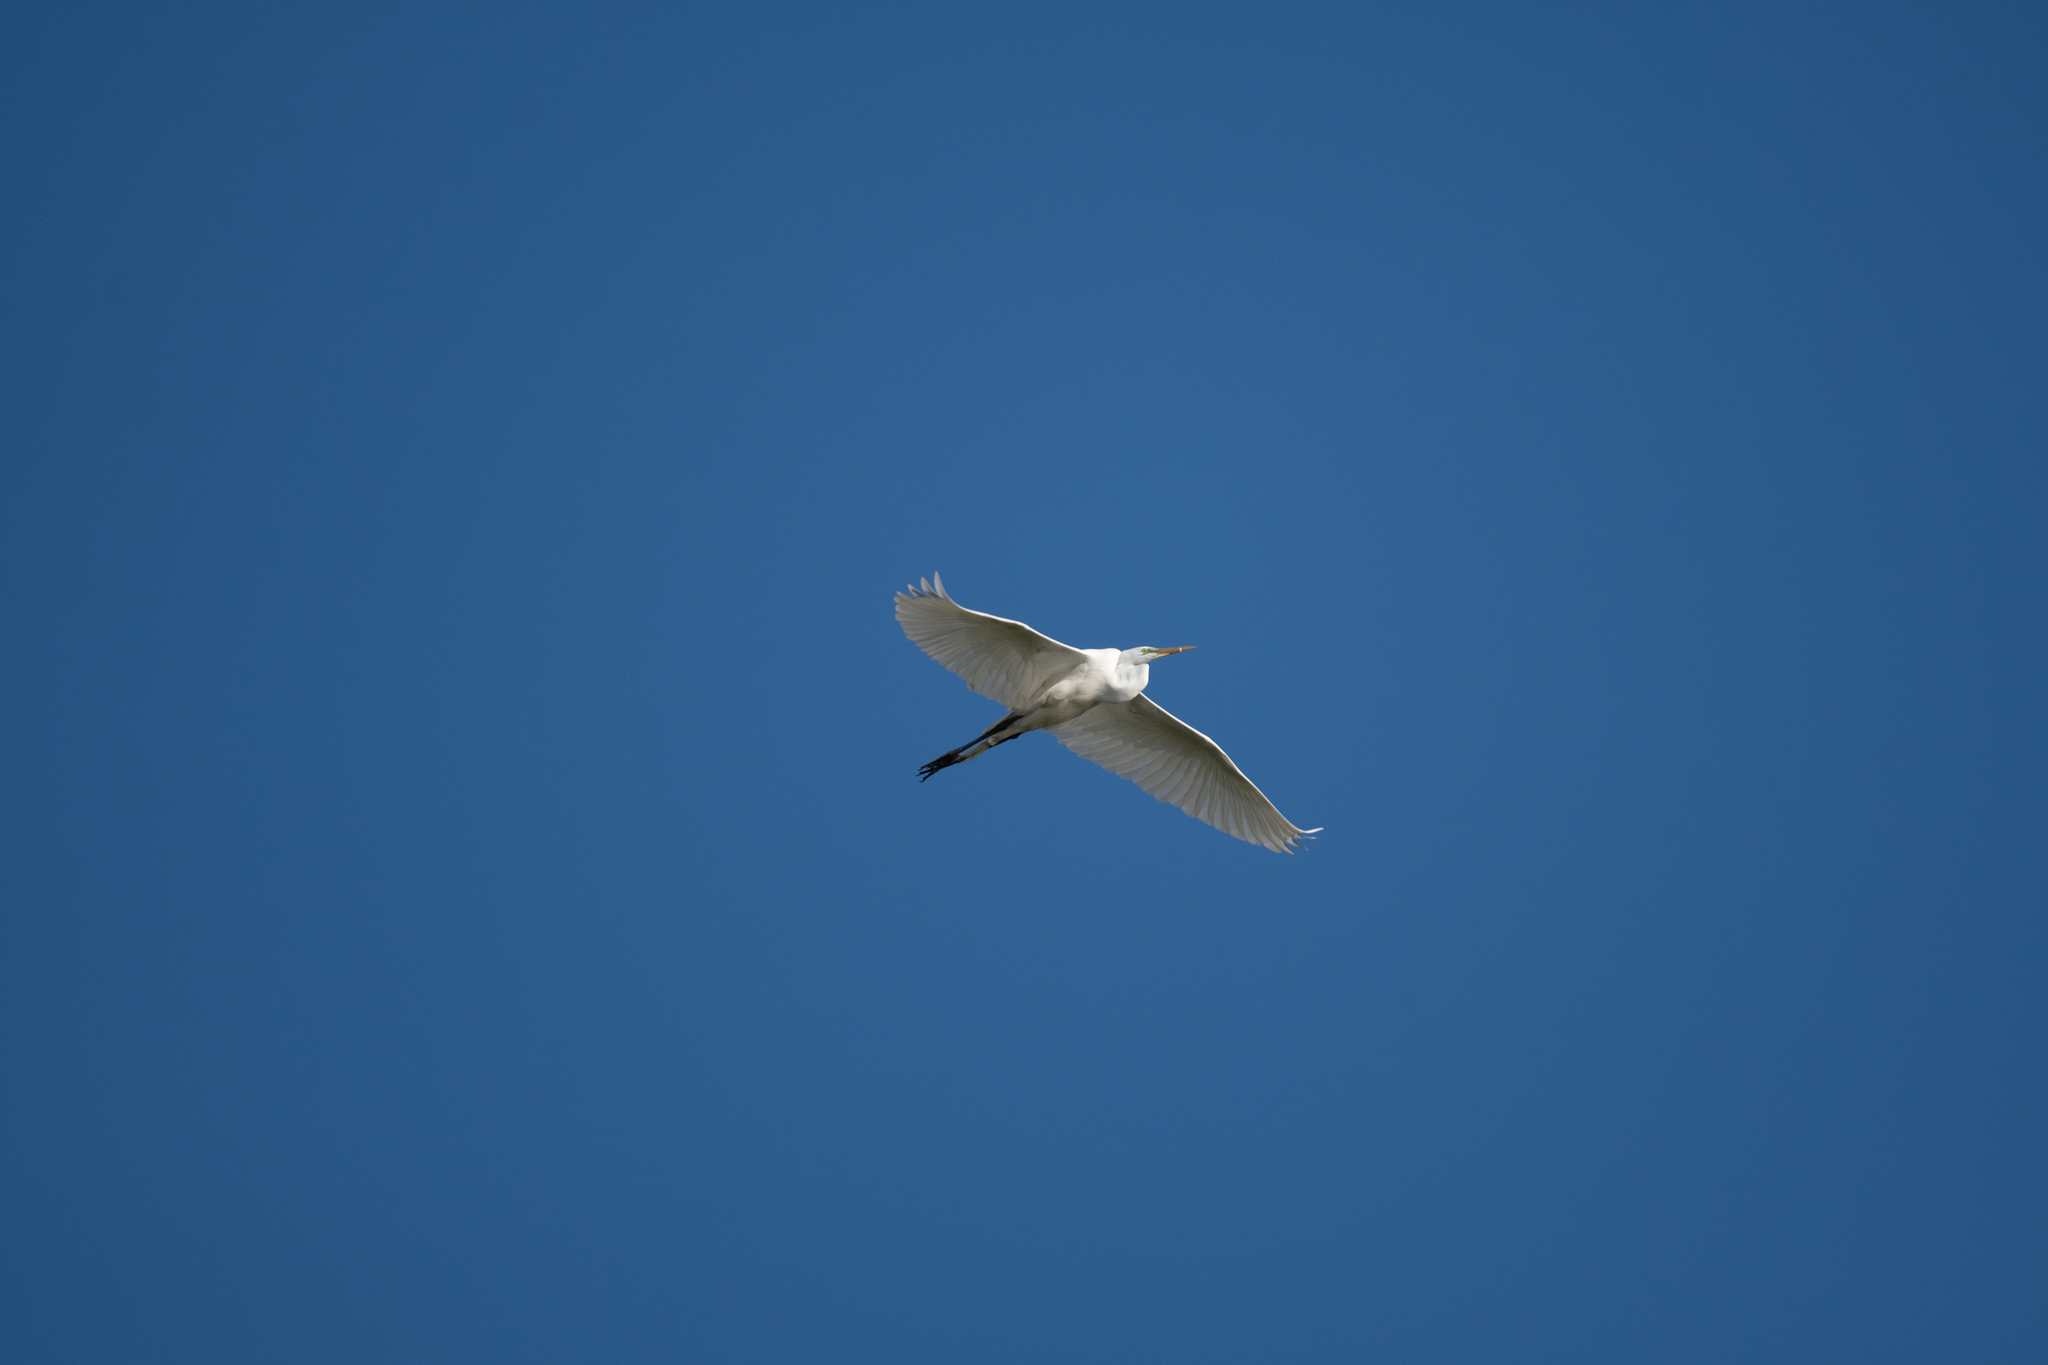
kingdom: Animalia
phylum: Chordata
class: Aves
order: Pelecaniformes
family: Ardeidae
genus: Ardea
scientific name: Ardea alba
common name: Great egret
